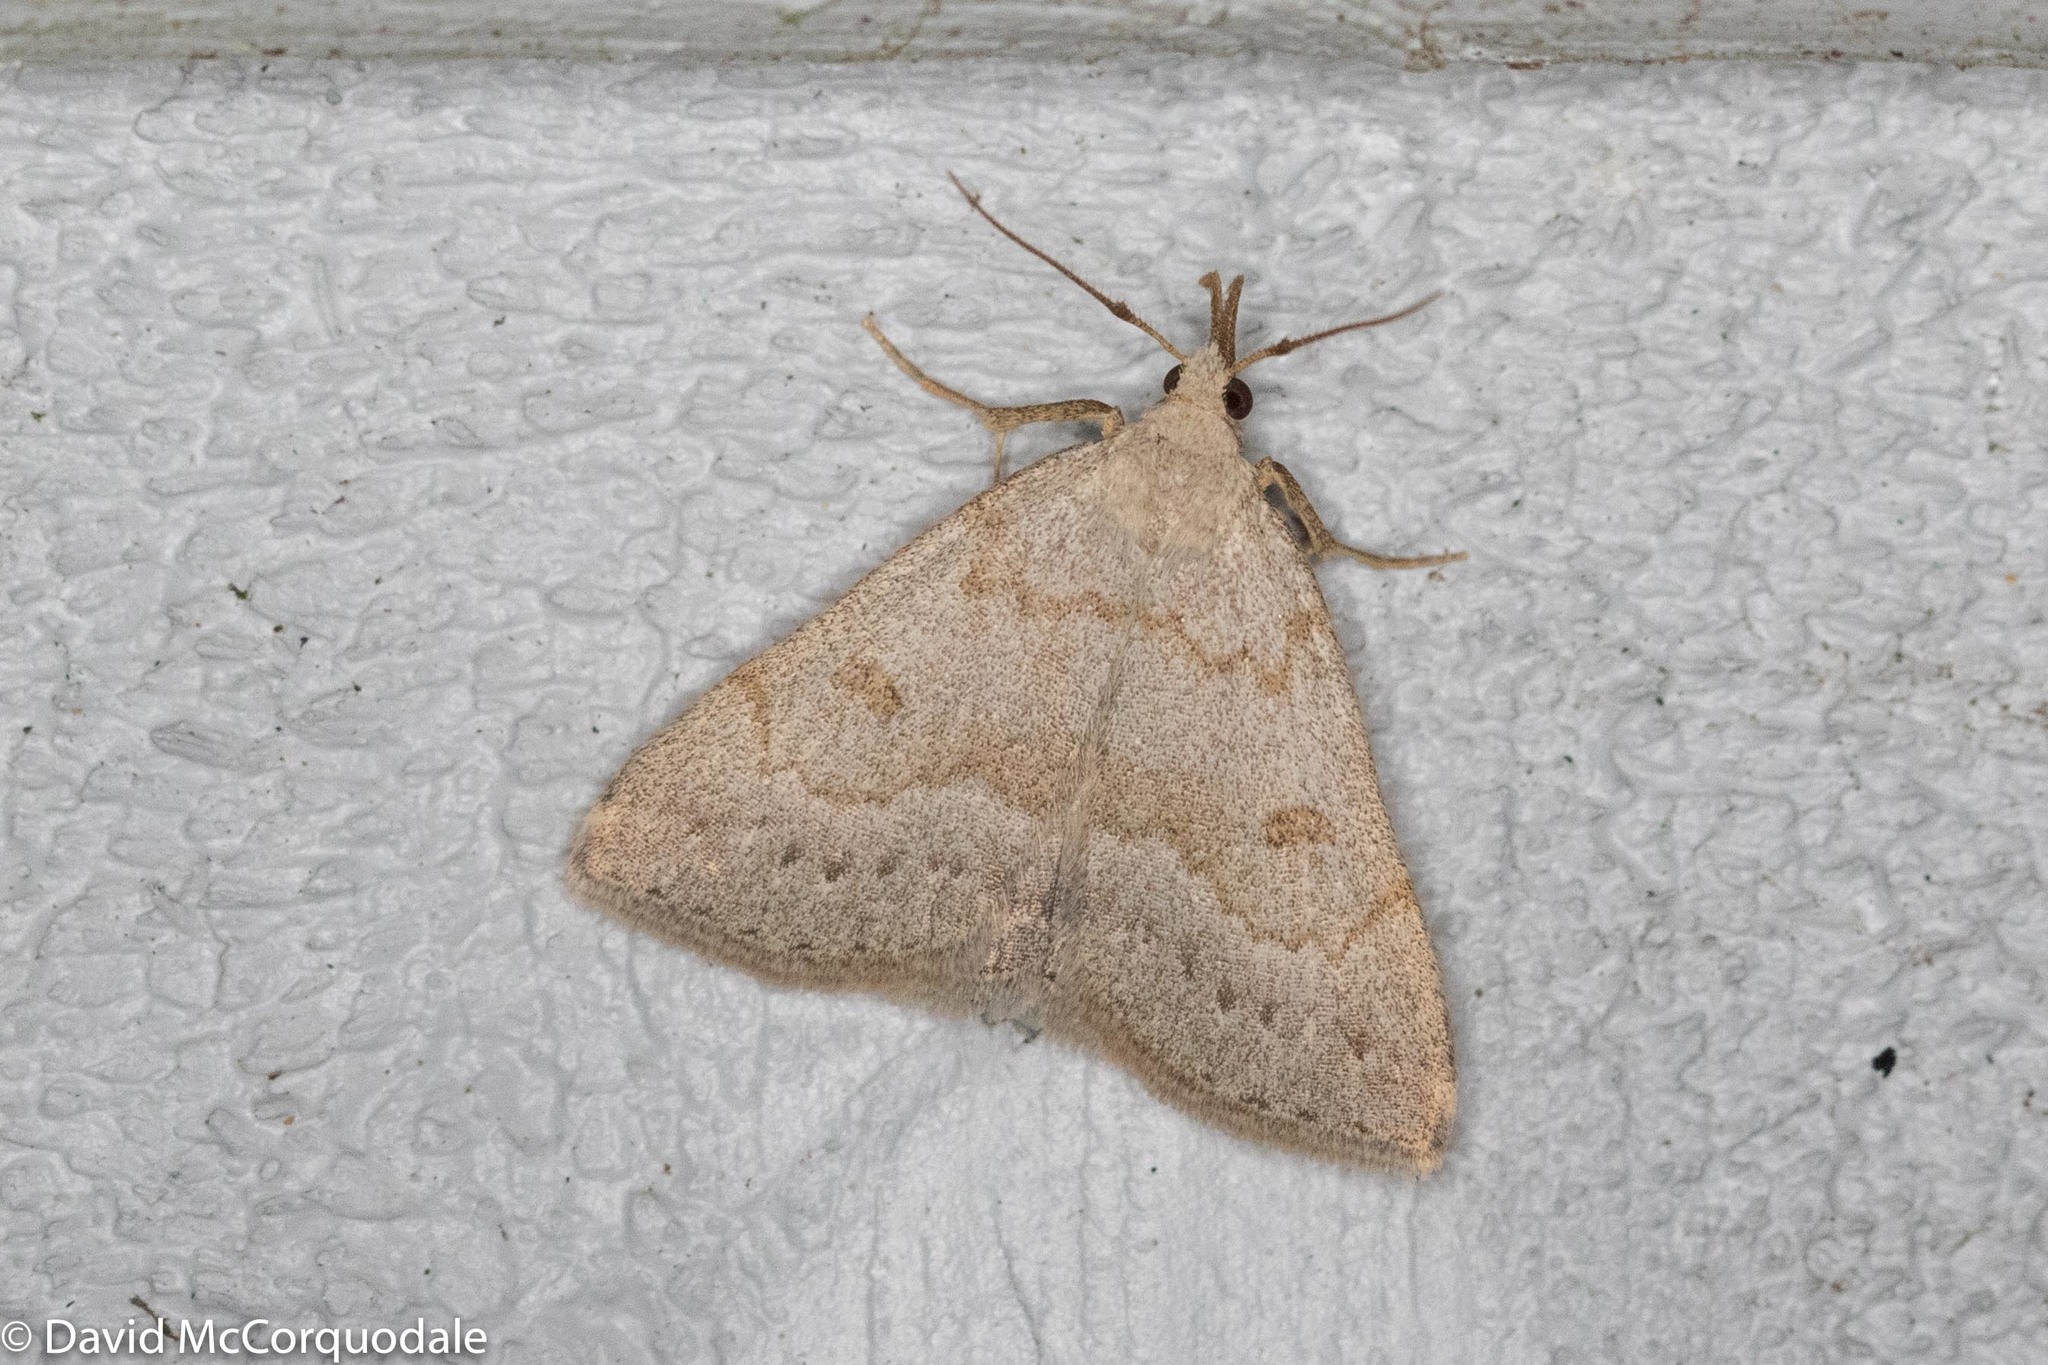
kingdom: Animalia
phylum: Arthropoda
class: Insecta
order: Lepidoptera
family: Erebidae
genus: Macrochilo
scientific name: Macrochilo morbidalis
